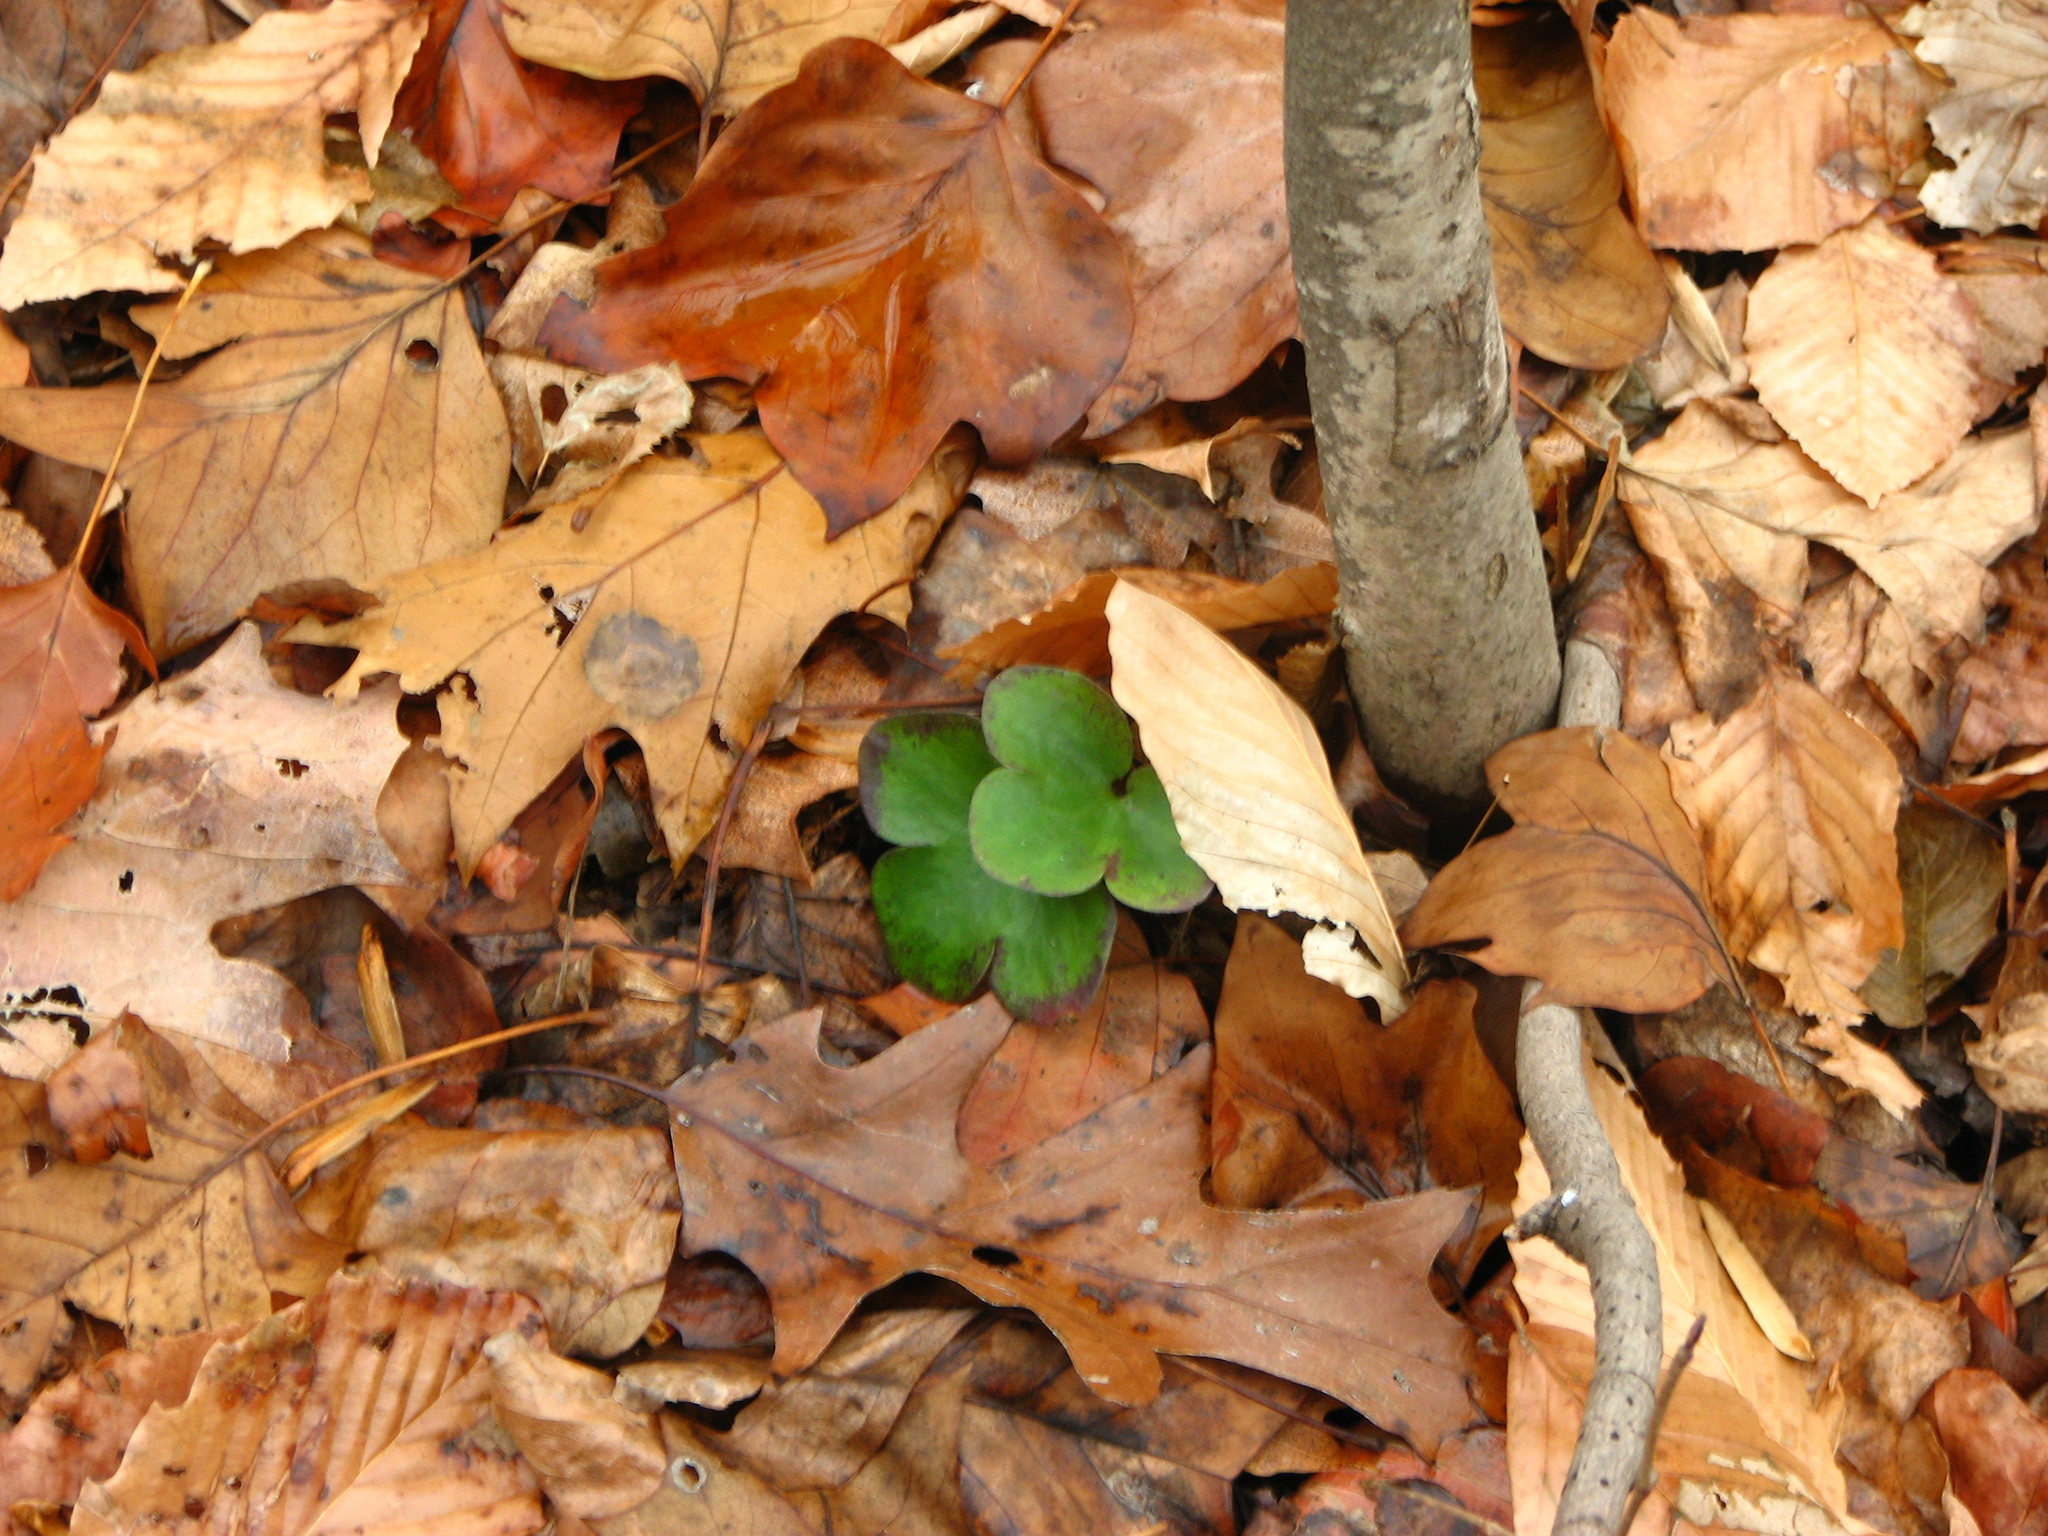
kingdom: Plantae
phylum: Tracheophyta
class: Magnoliopsida
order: Ranunculales
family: Ranunculaceae
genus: Hepatica
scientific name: Hepatica americana
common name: American hepatica
